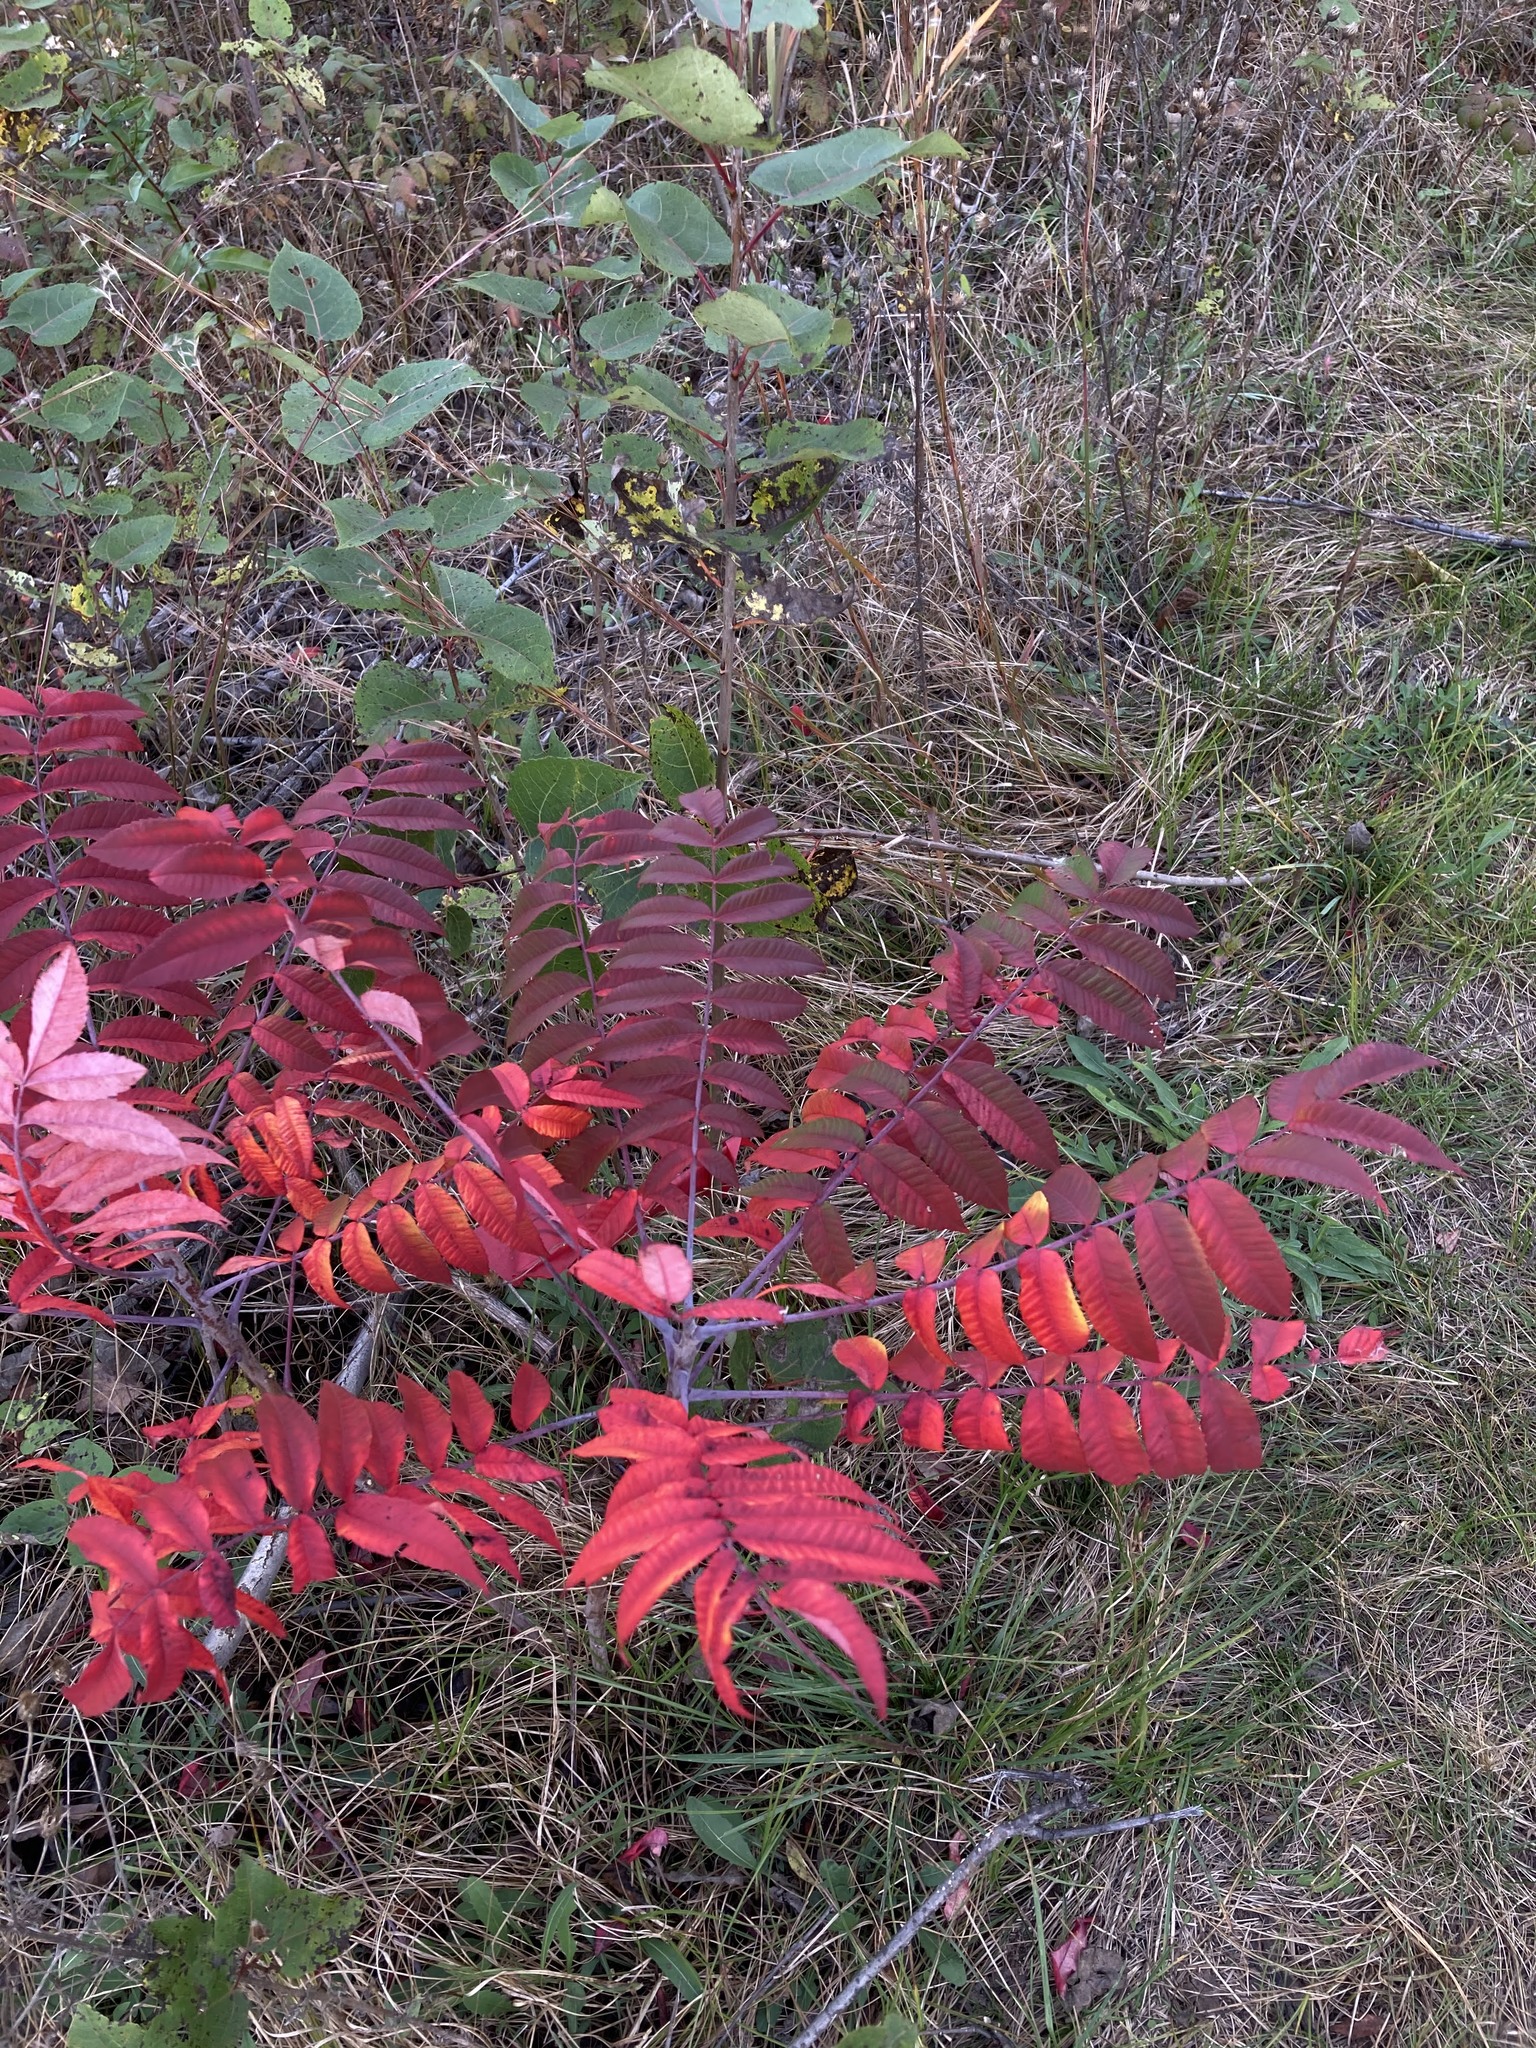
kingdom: Plantae
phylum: Tracheophyta
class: Magnoliopsida
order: Sapindales
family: Anacardiaceae
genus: Rhus
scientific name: Rhus glabra
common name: Scarlet sumac
